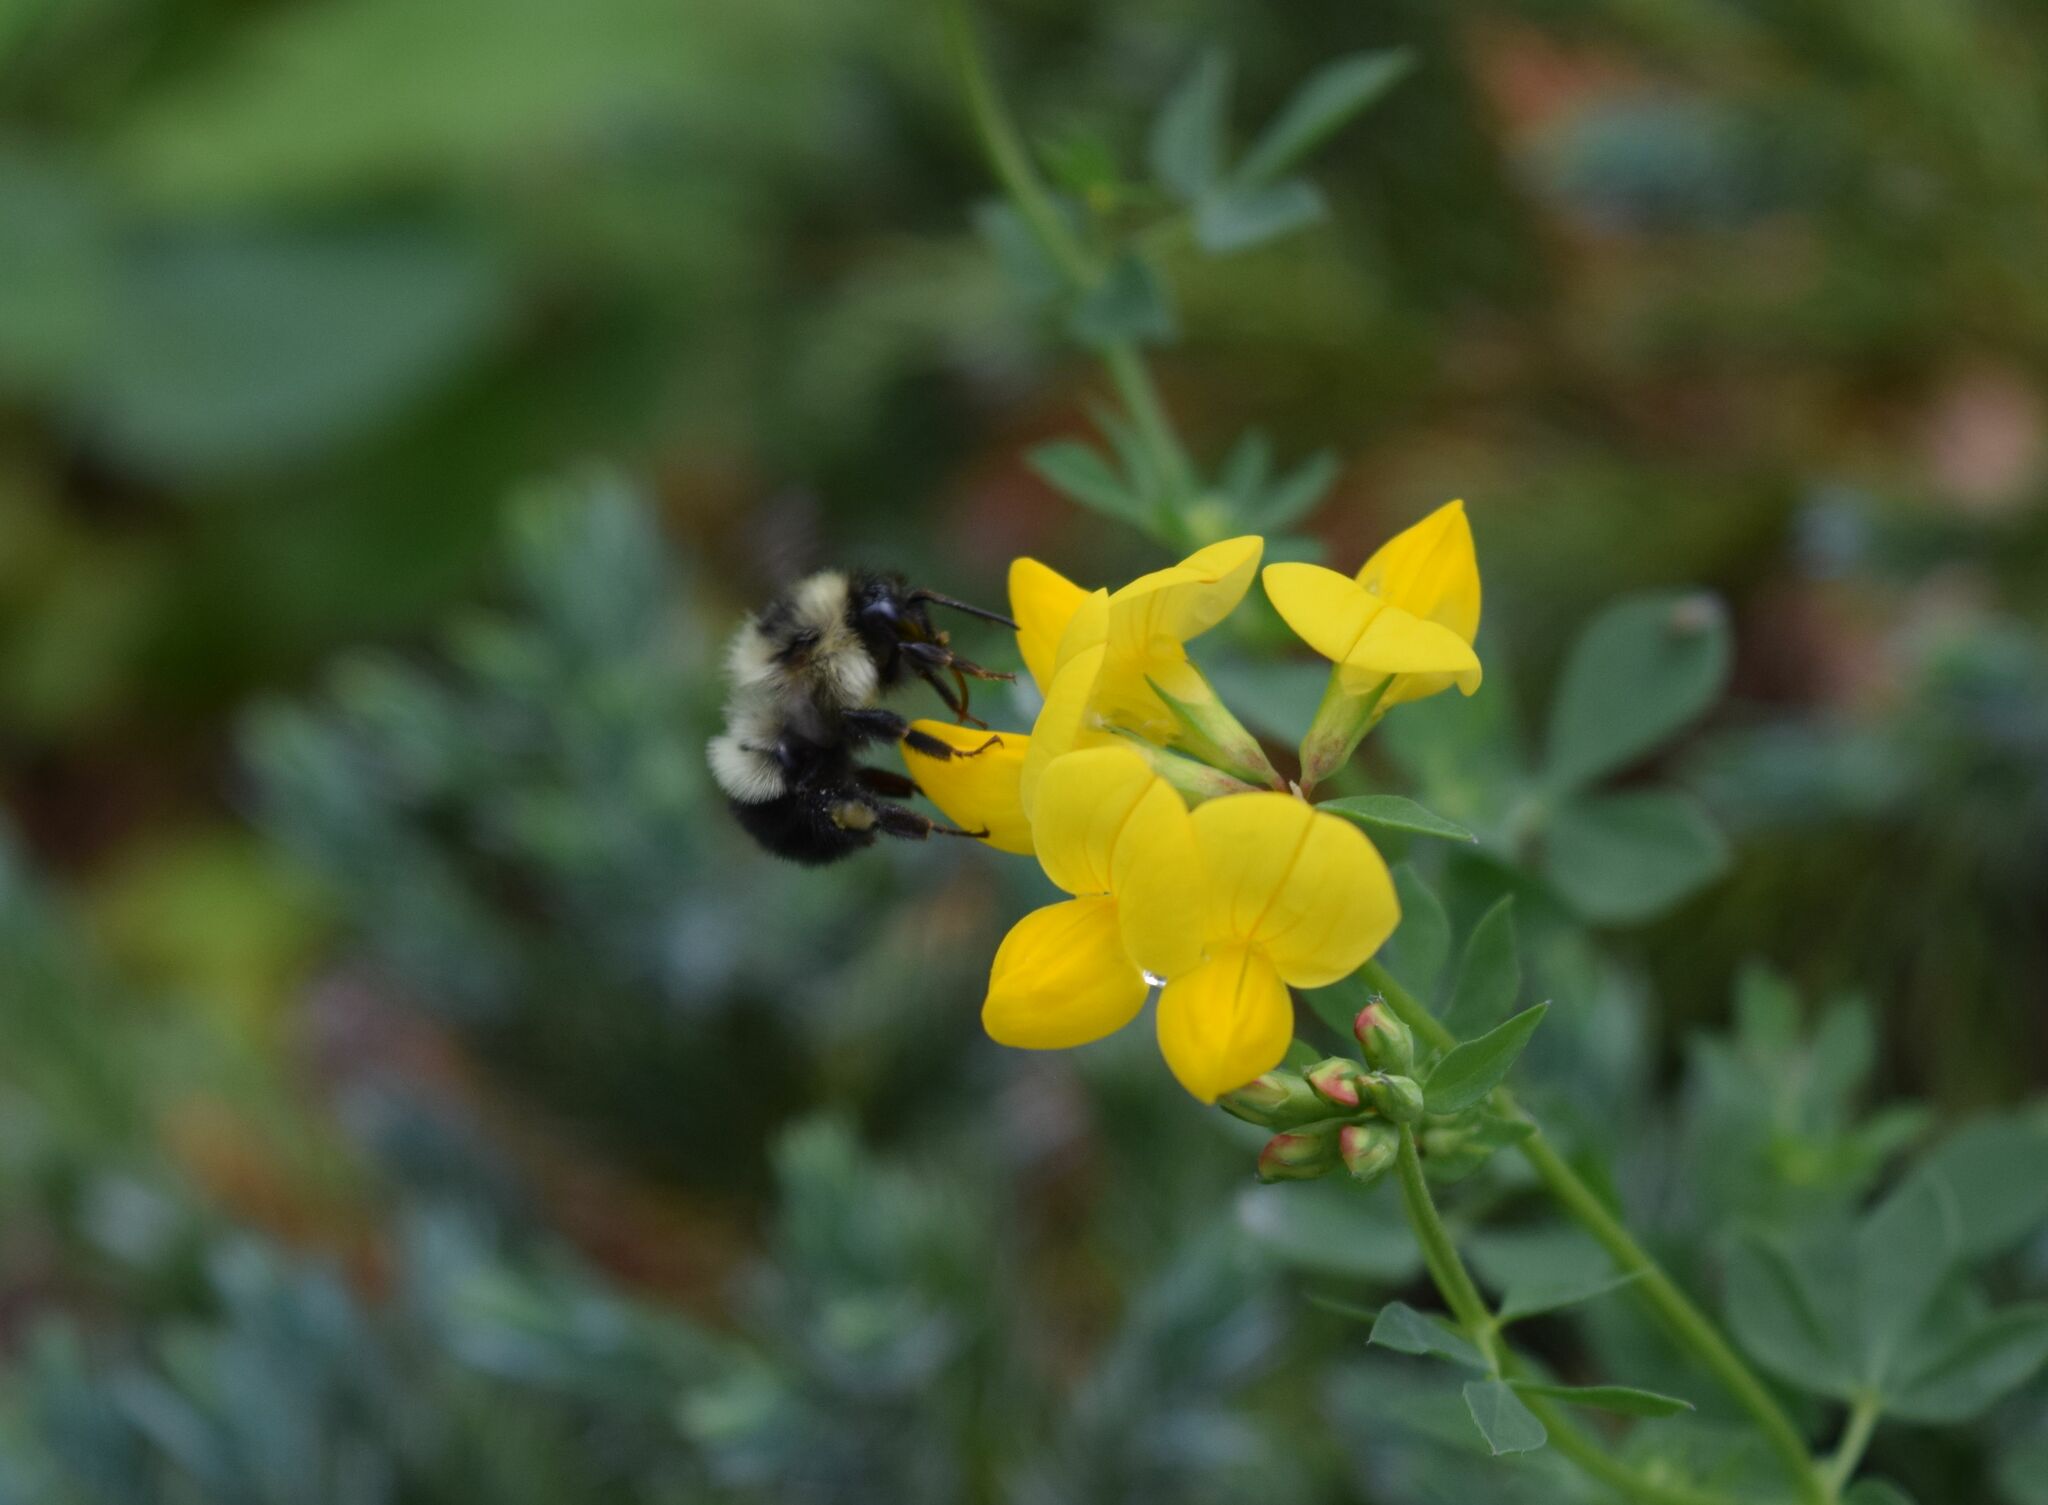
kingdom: Animalia
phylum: Arthropoda
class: Insecta
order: Hymenoptera
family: Apidae
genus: Pyrobombus
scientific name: Pyrobombus
